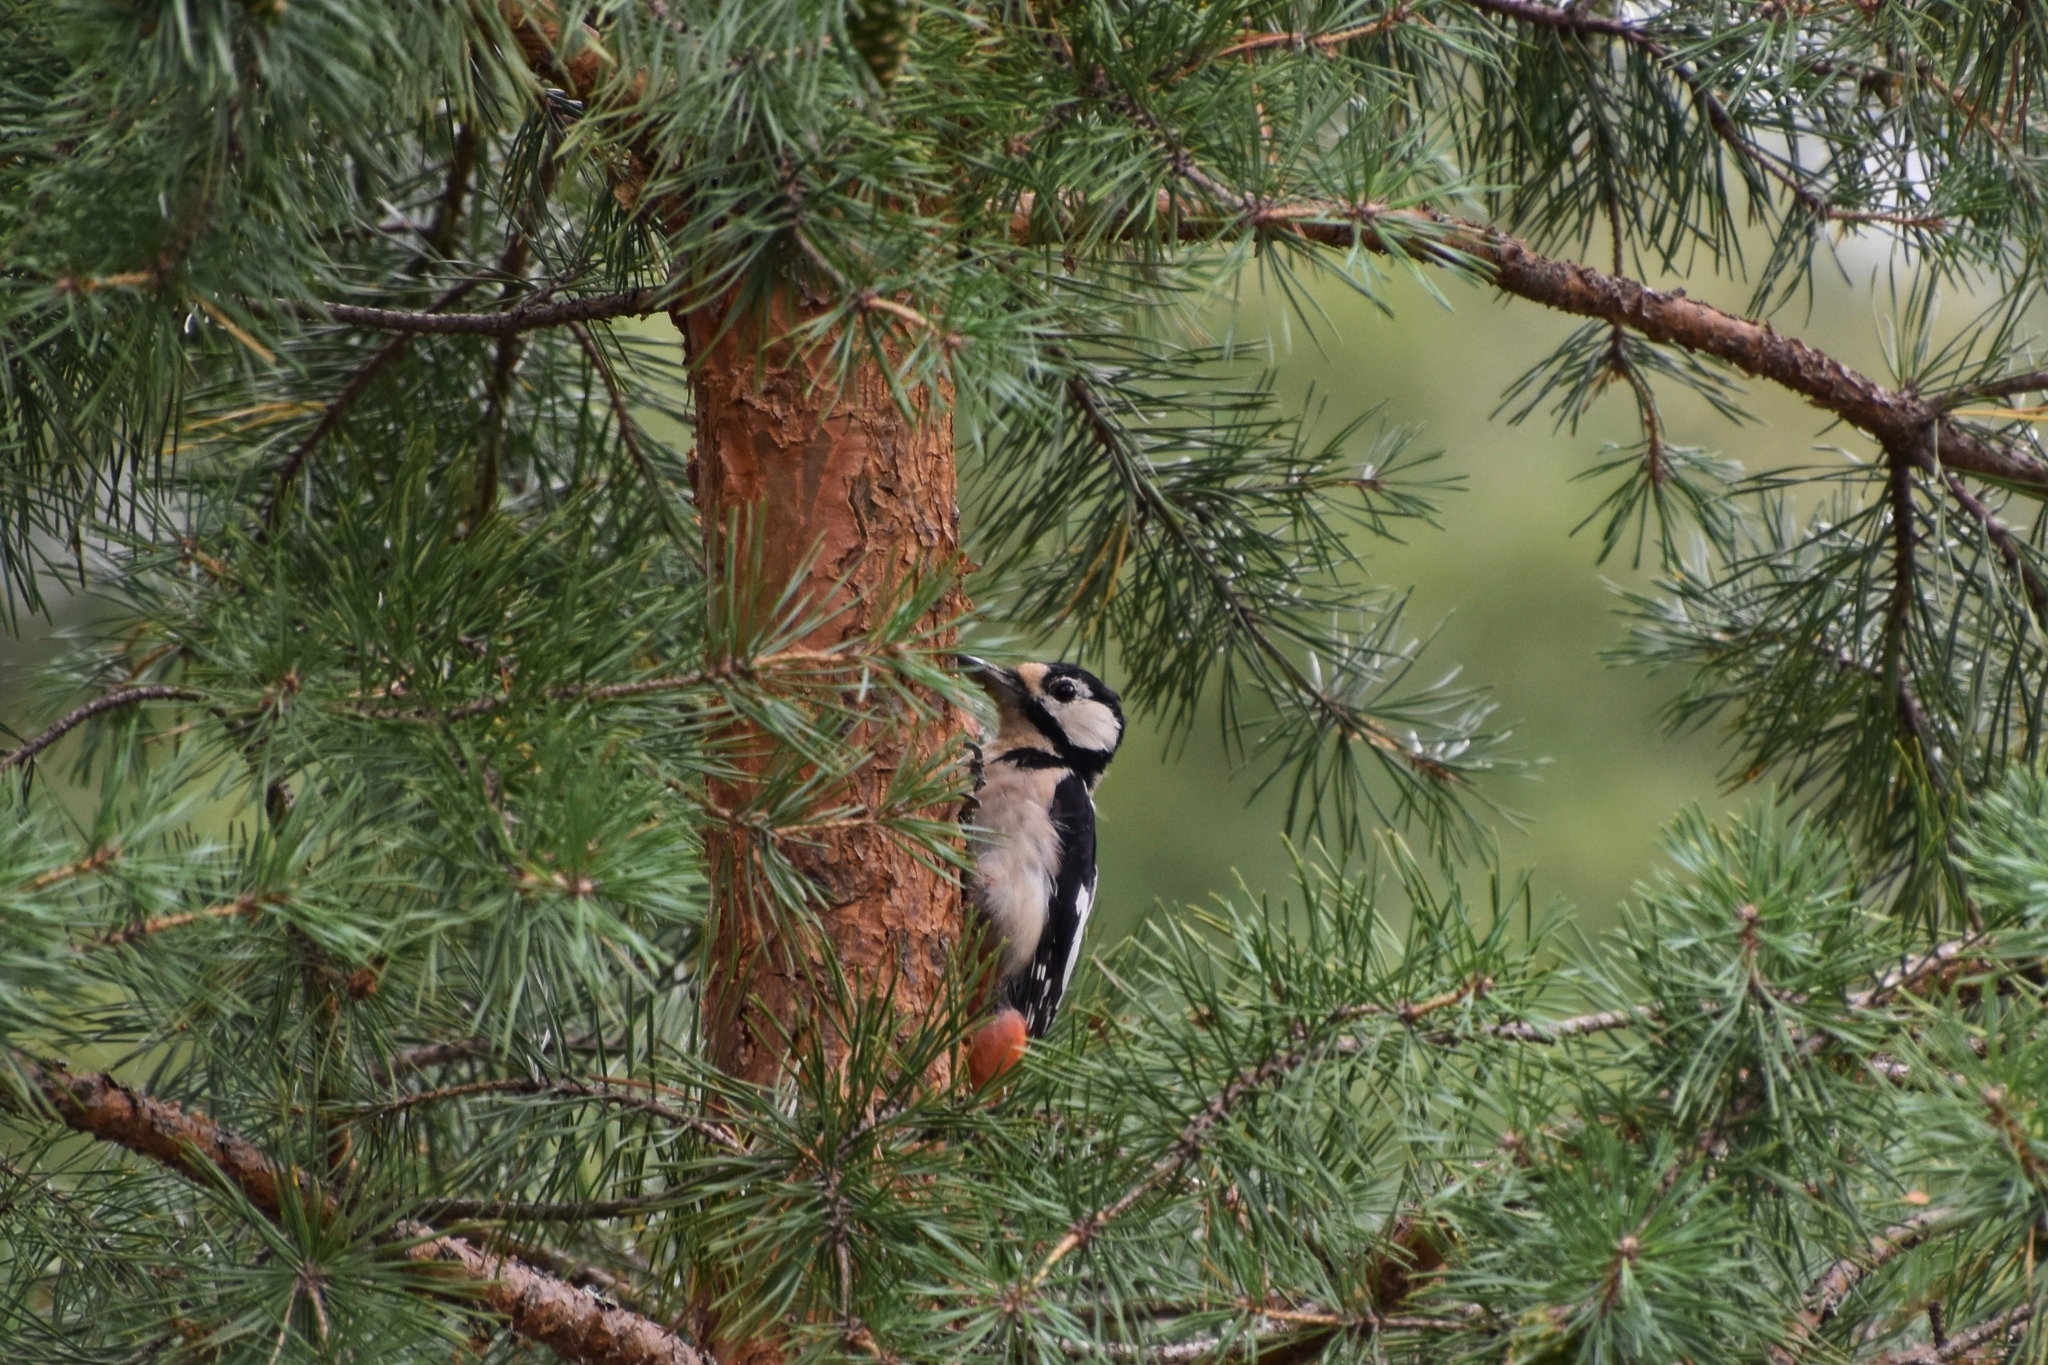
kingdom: Animalia
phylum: Chordata
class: Aves
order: Piciformes
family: Picidae
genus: Dendrocopos
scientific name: Dendrocopos major
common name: Great spotted woodpecker
